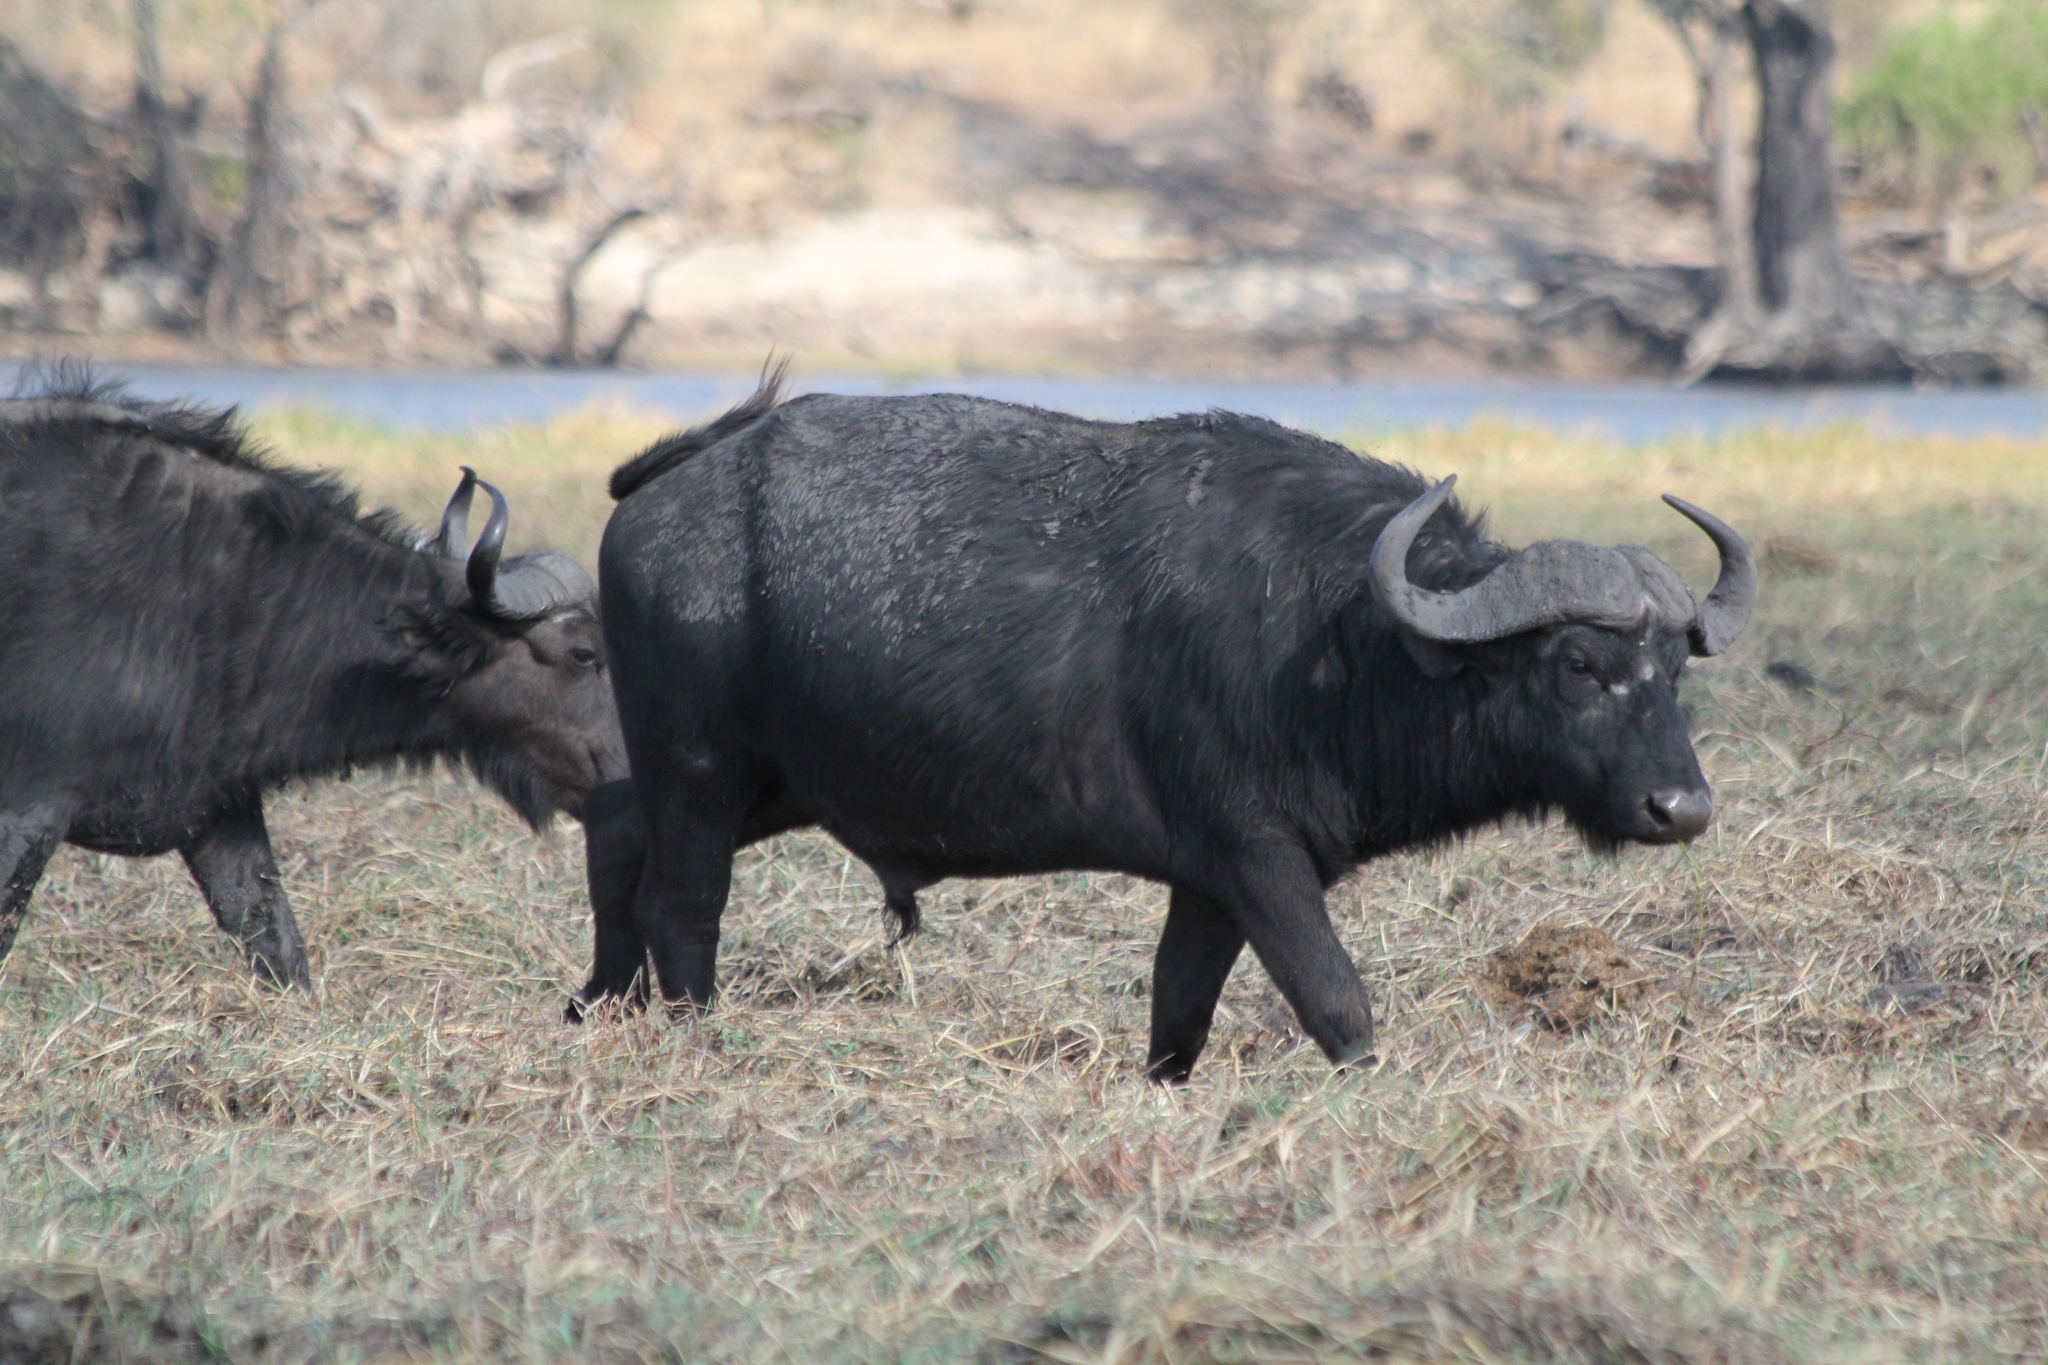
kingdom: Animalia
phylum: Chordata
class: Mammalia
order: Artiodactyla
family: Bovidae
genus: Syncerus
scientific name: Syncerus caffer
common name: African buffalo
